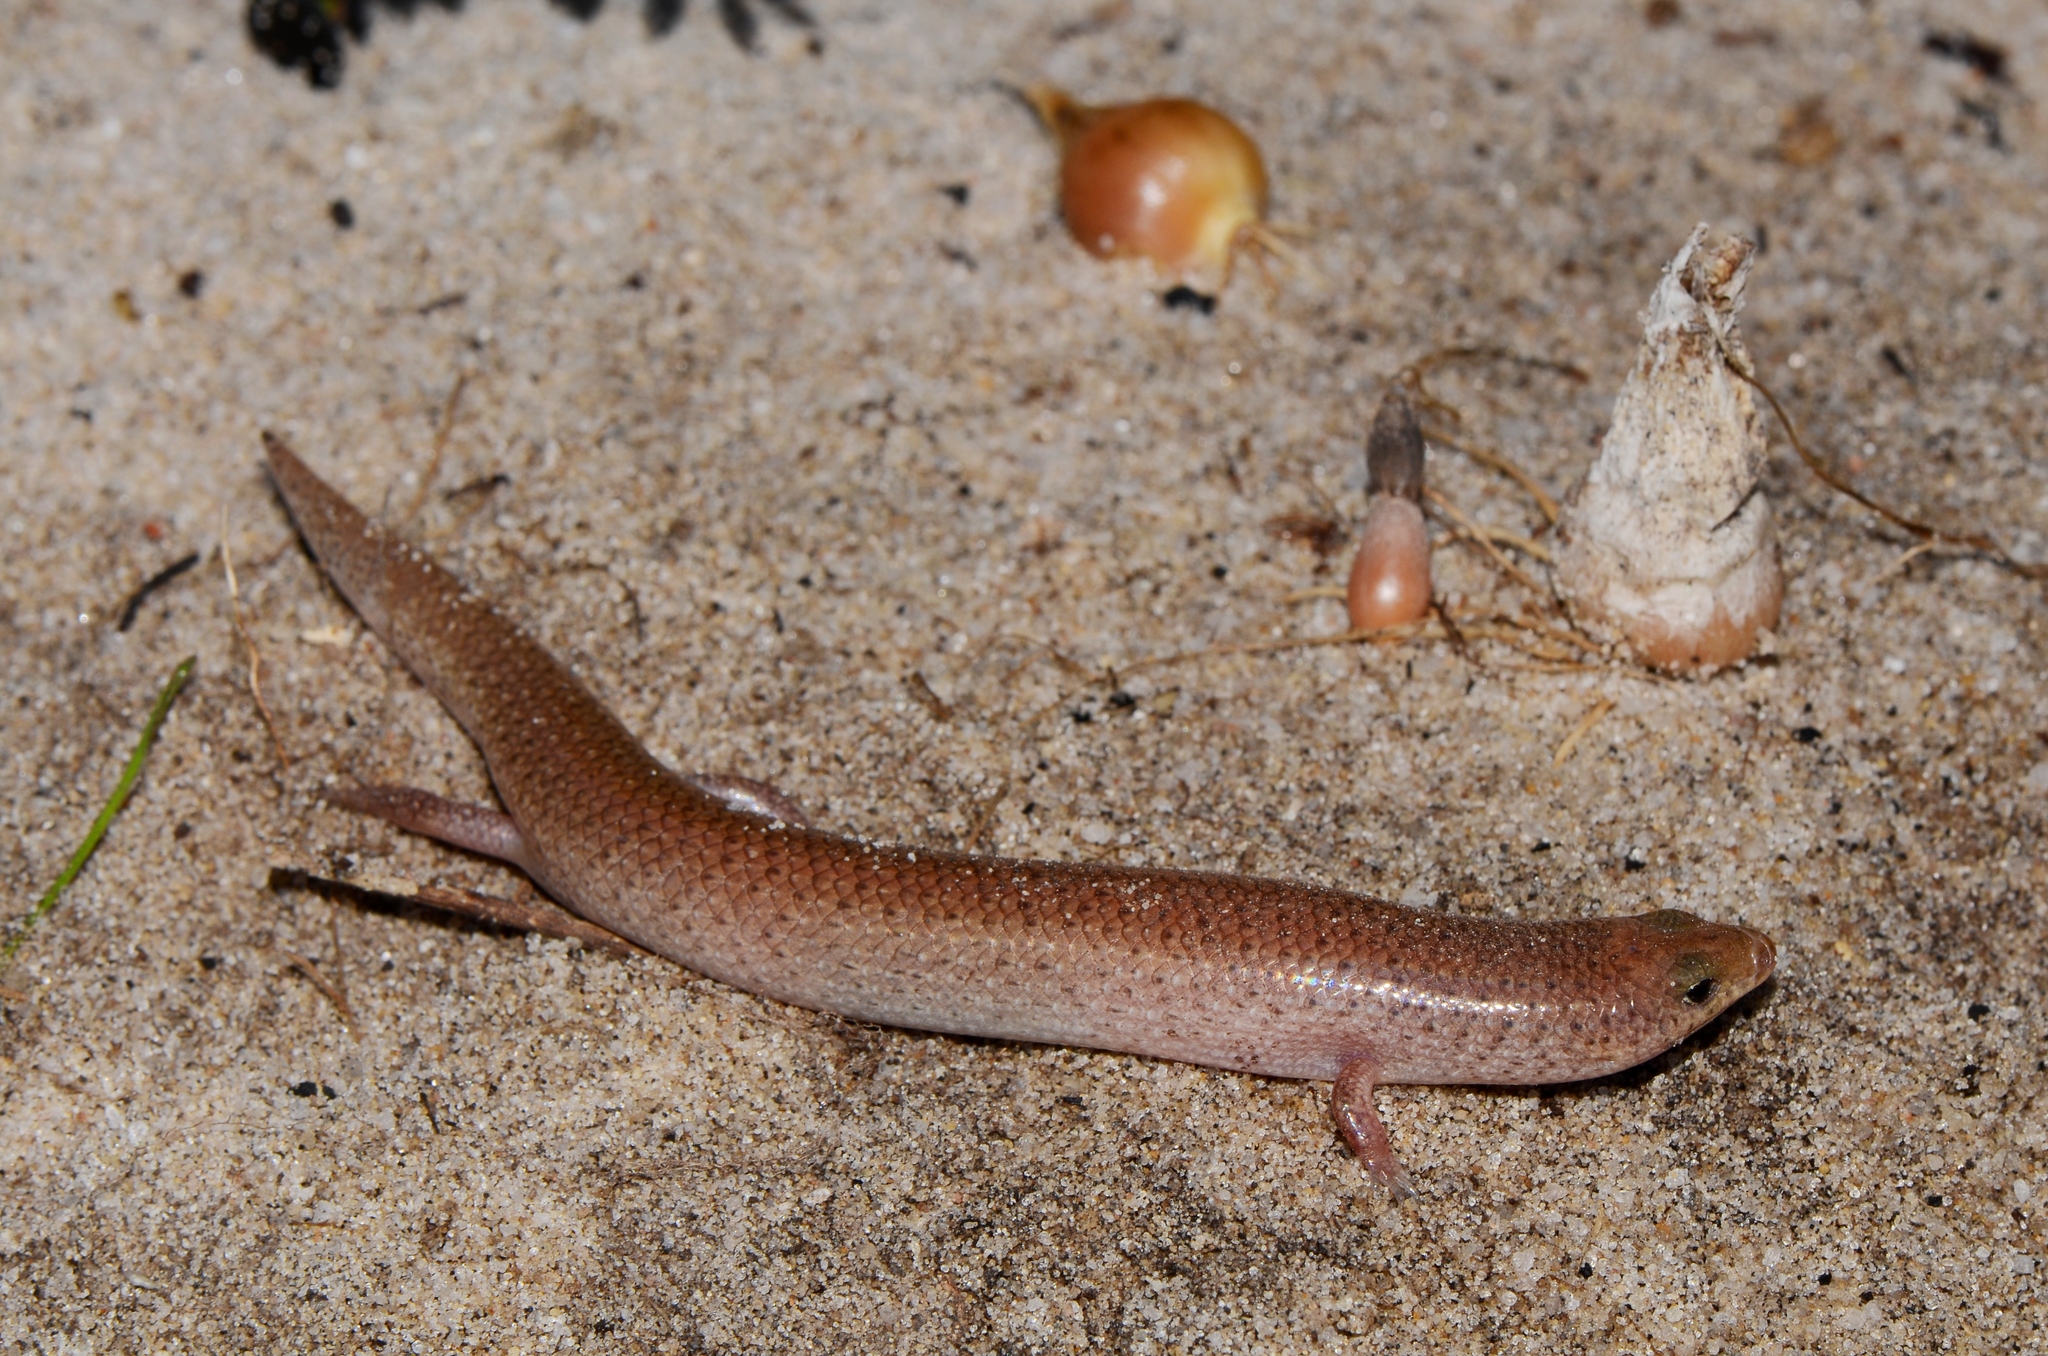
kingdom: Animalia
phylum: Chordata
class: Squamata
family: Scincidae
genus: Mochlus
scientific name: Mochlus sundevallii
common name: Peters' eyelid skink
